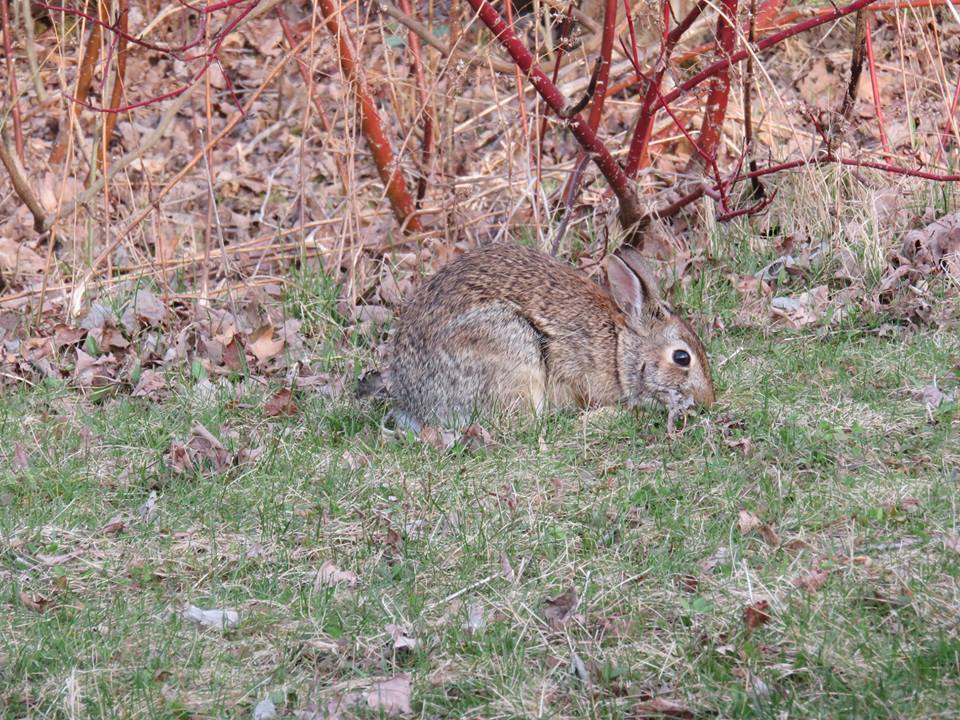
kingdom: Animalia
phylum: Chordata
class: Mammalia
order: Lagomorpha
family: Leporidae
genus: Sylvilagus
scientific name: Sylvilagus floridanus
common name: Eastern cottontail
